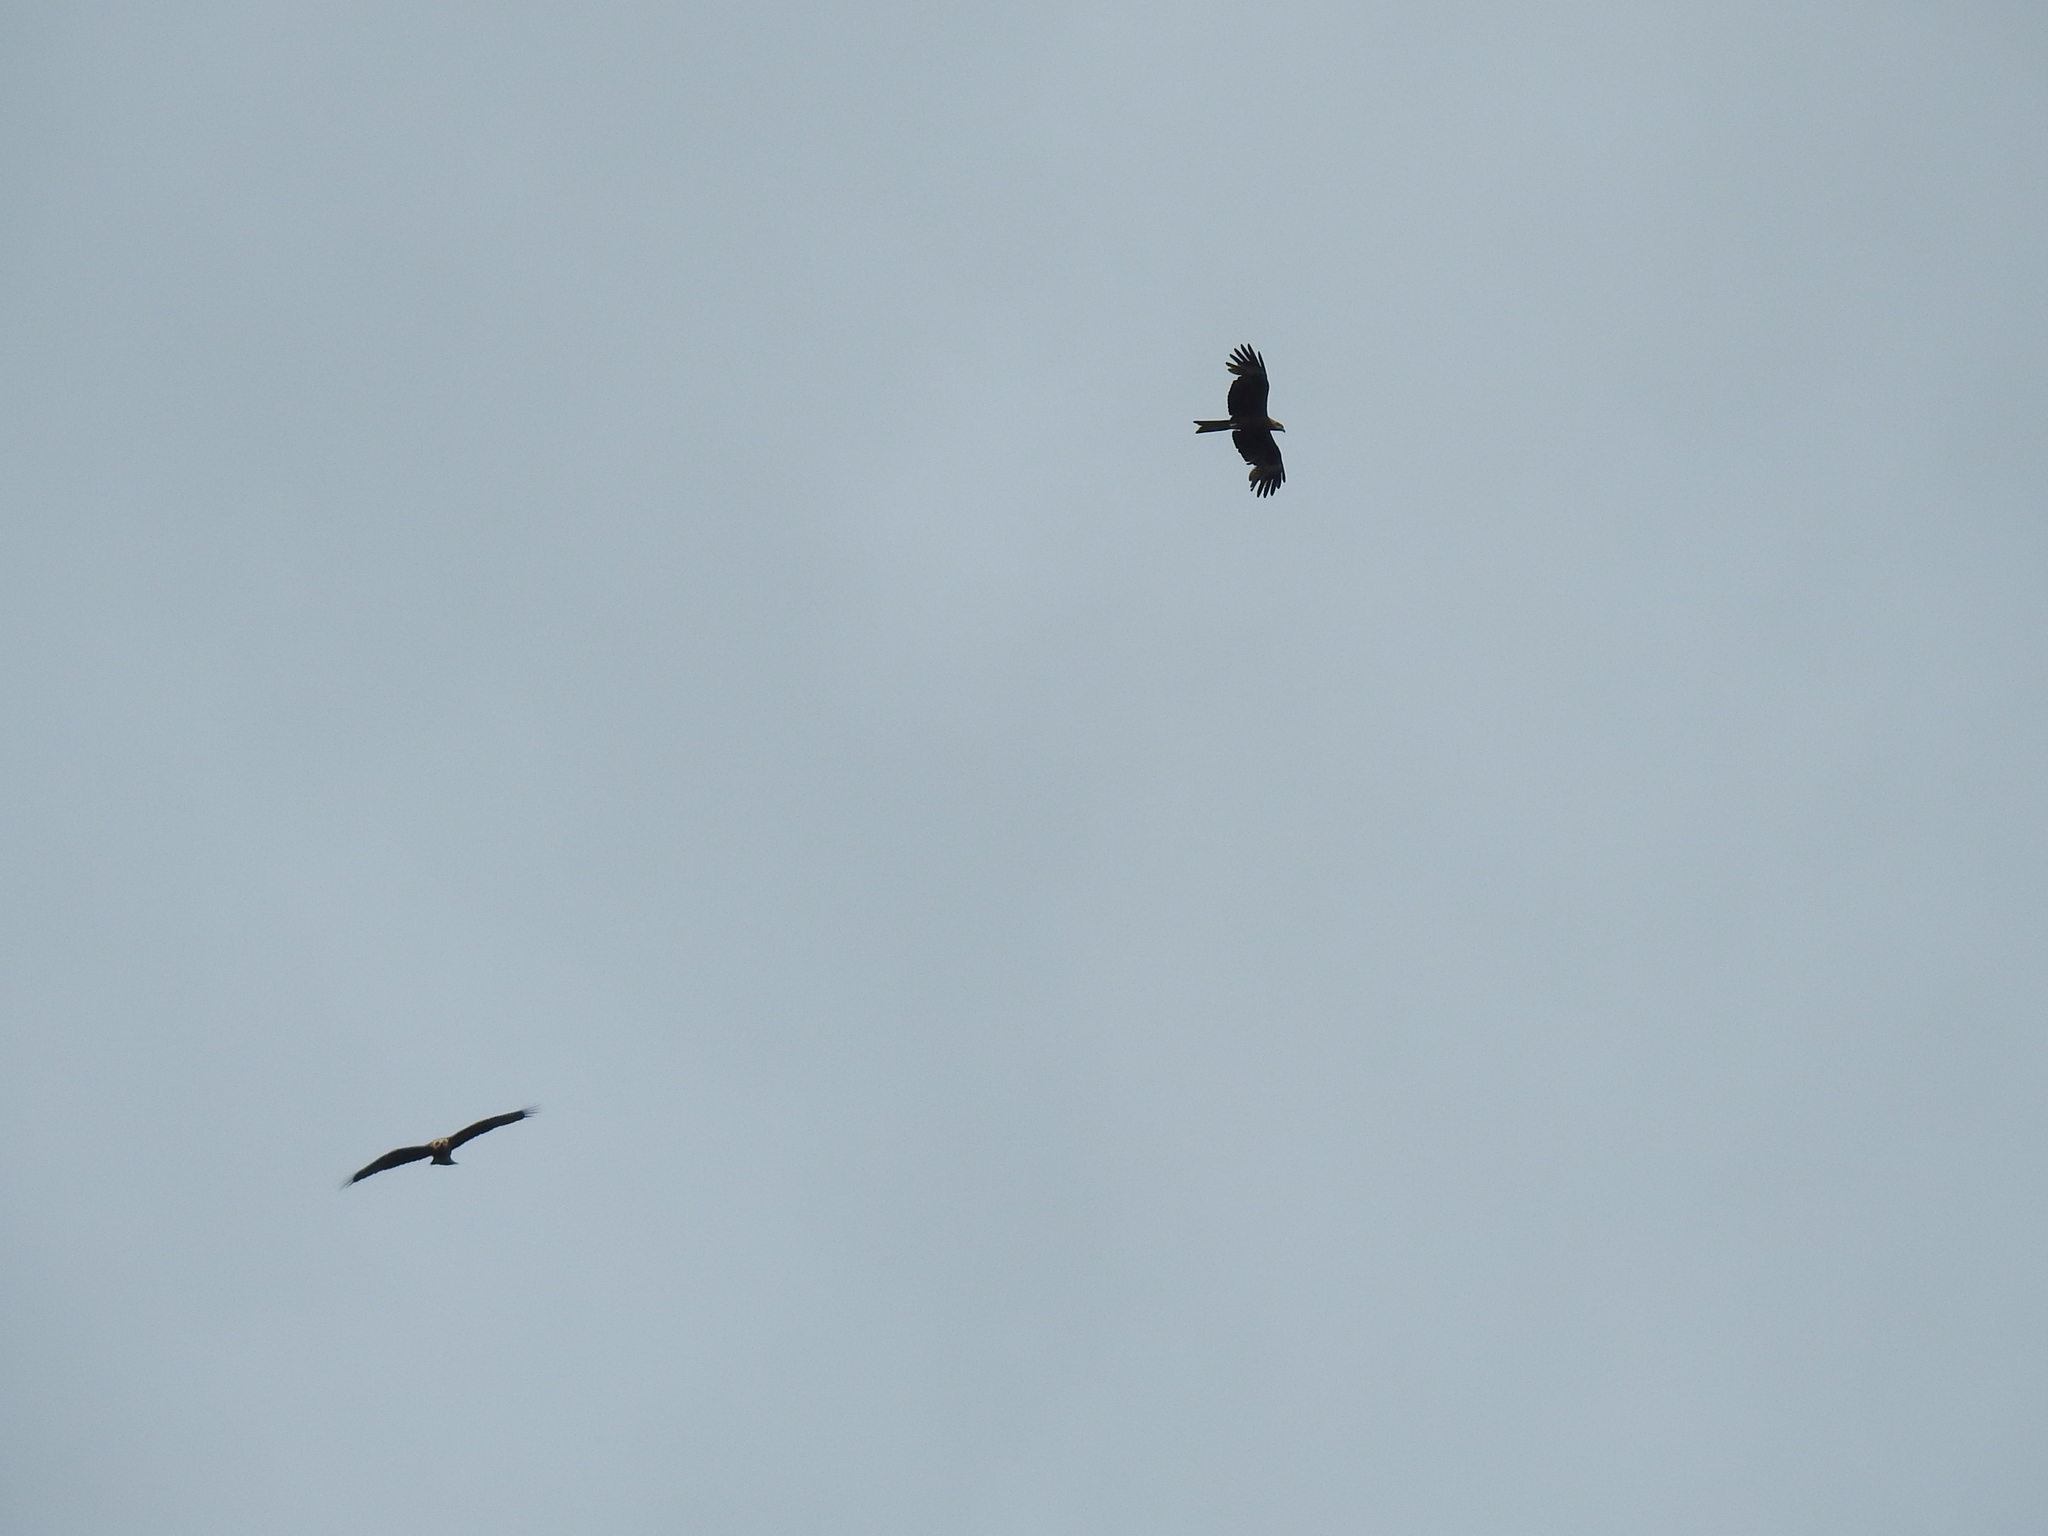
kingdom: Animalia
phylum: Chordata
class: Aves
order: Accipitriformes
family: Accipitridae
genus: Milvus
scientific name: Milvus migrans
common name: Black kite
